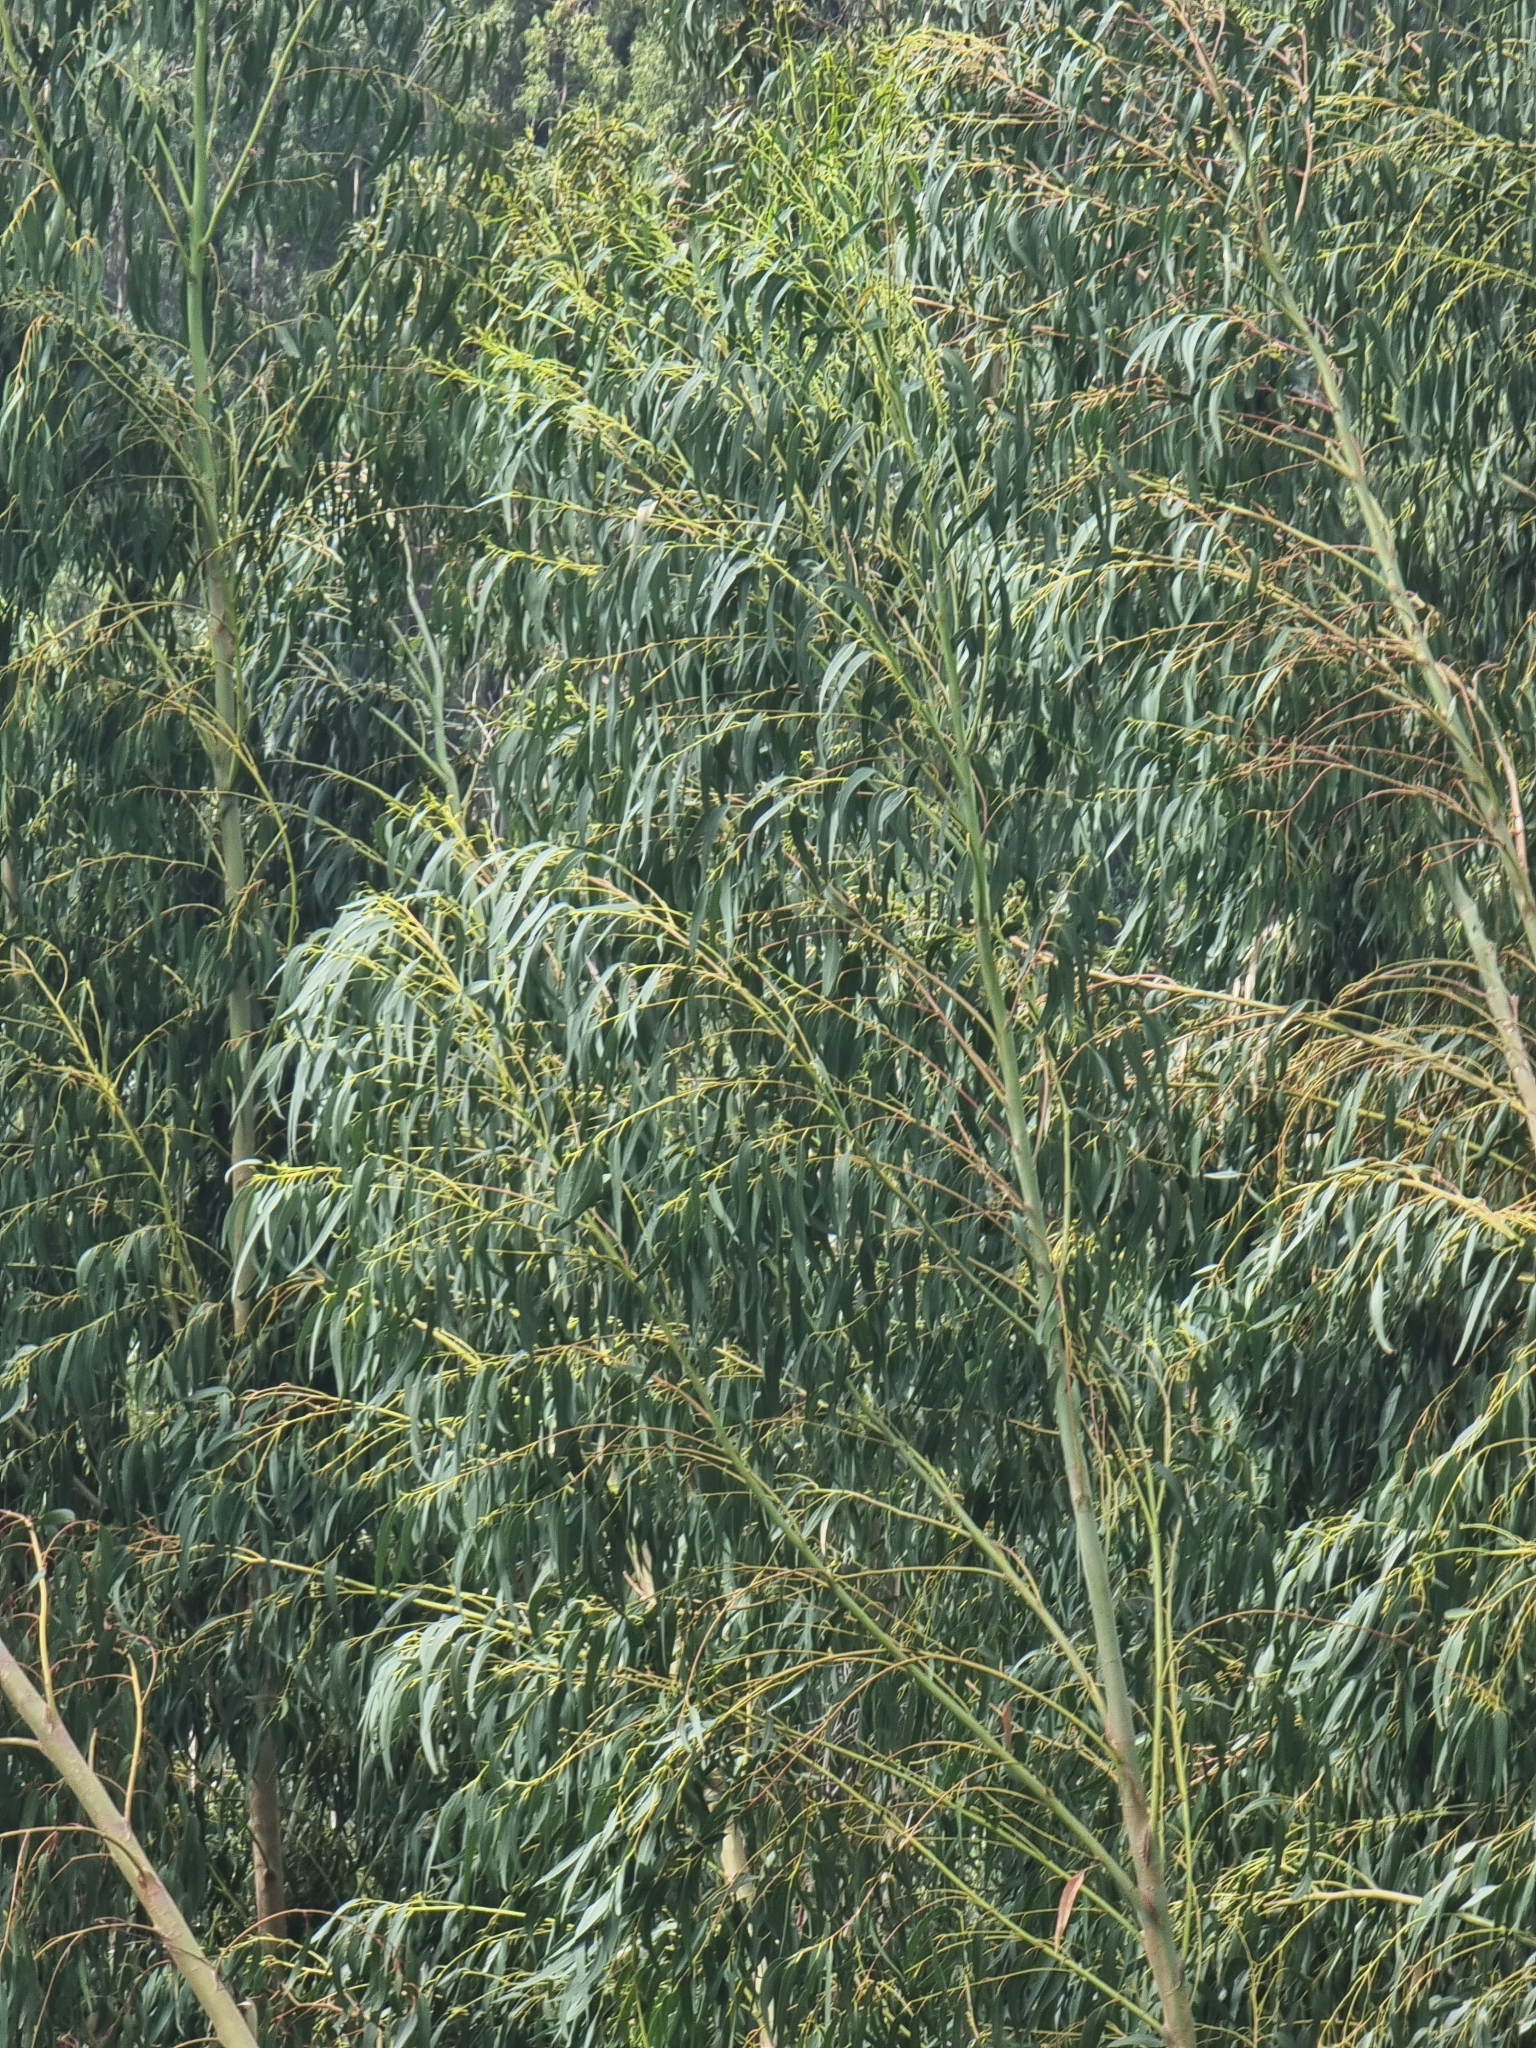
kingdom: Plantae
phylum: Tracheophyta
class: Magnoliopsida
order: Myrtales
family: Myrtaceae
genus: Eucalyptus
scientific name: Eucalyptus globulus
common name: Southern blue-gum
